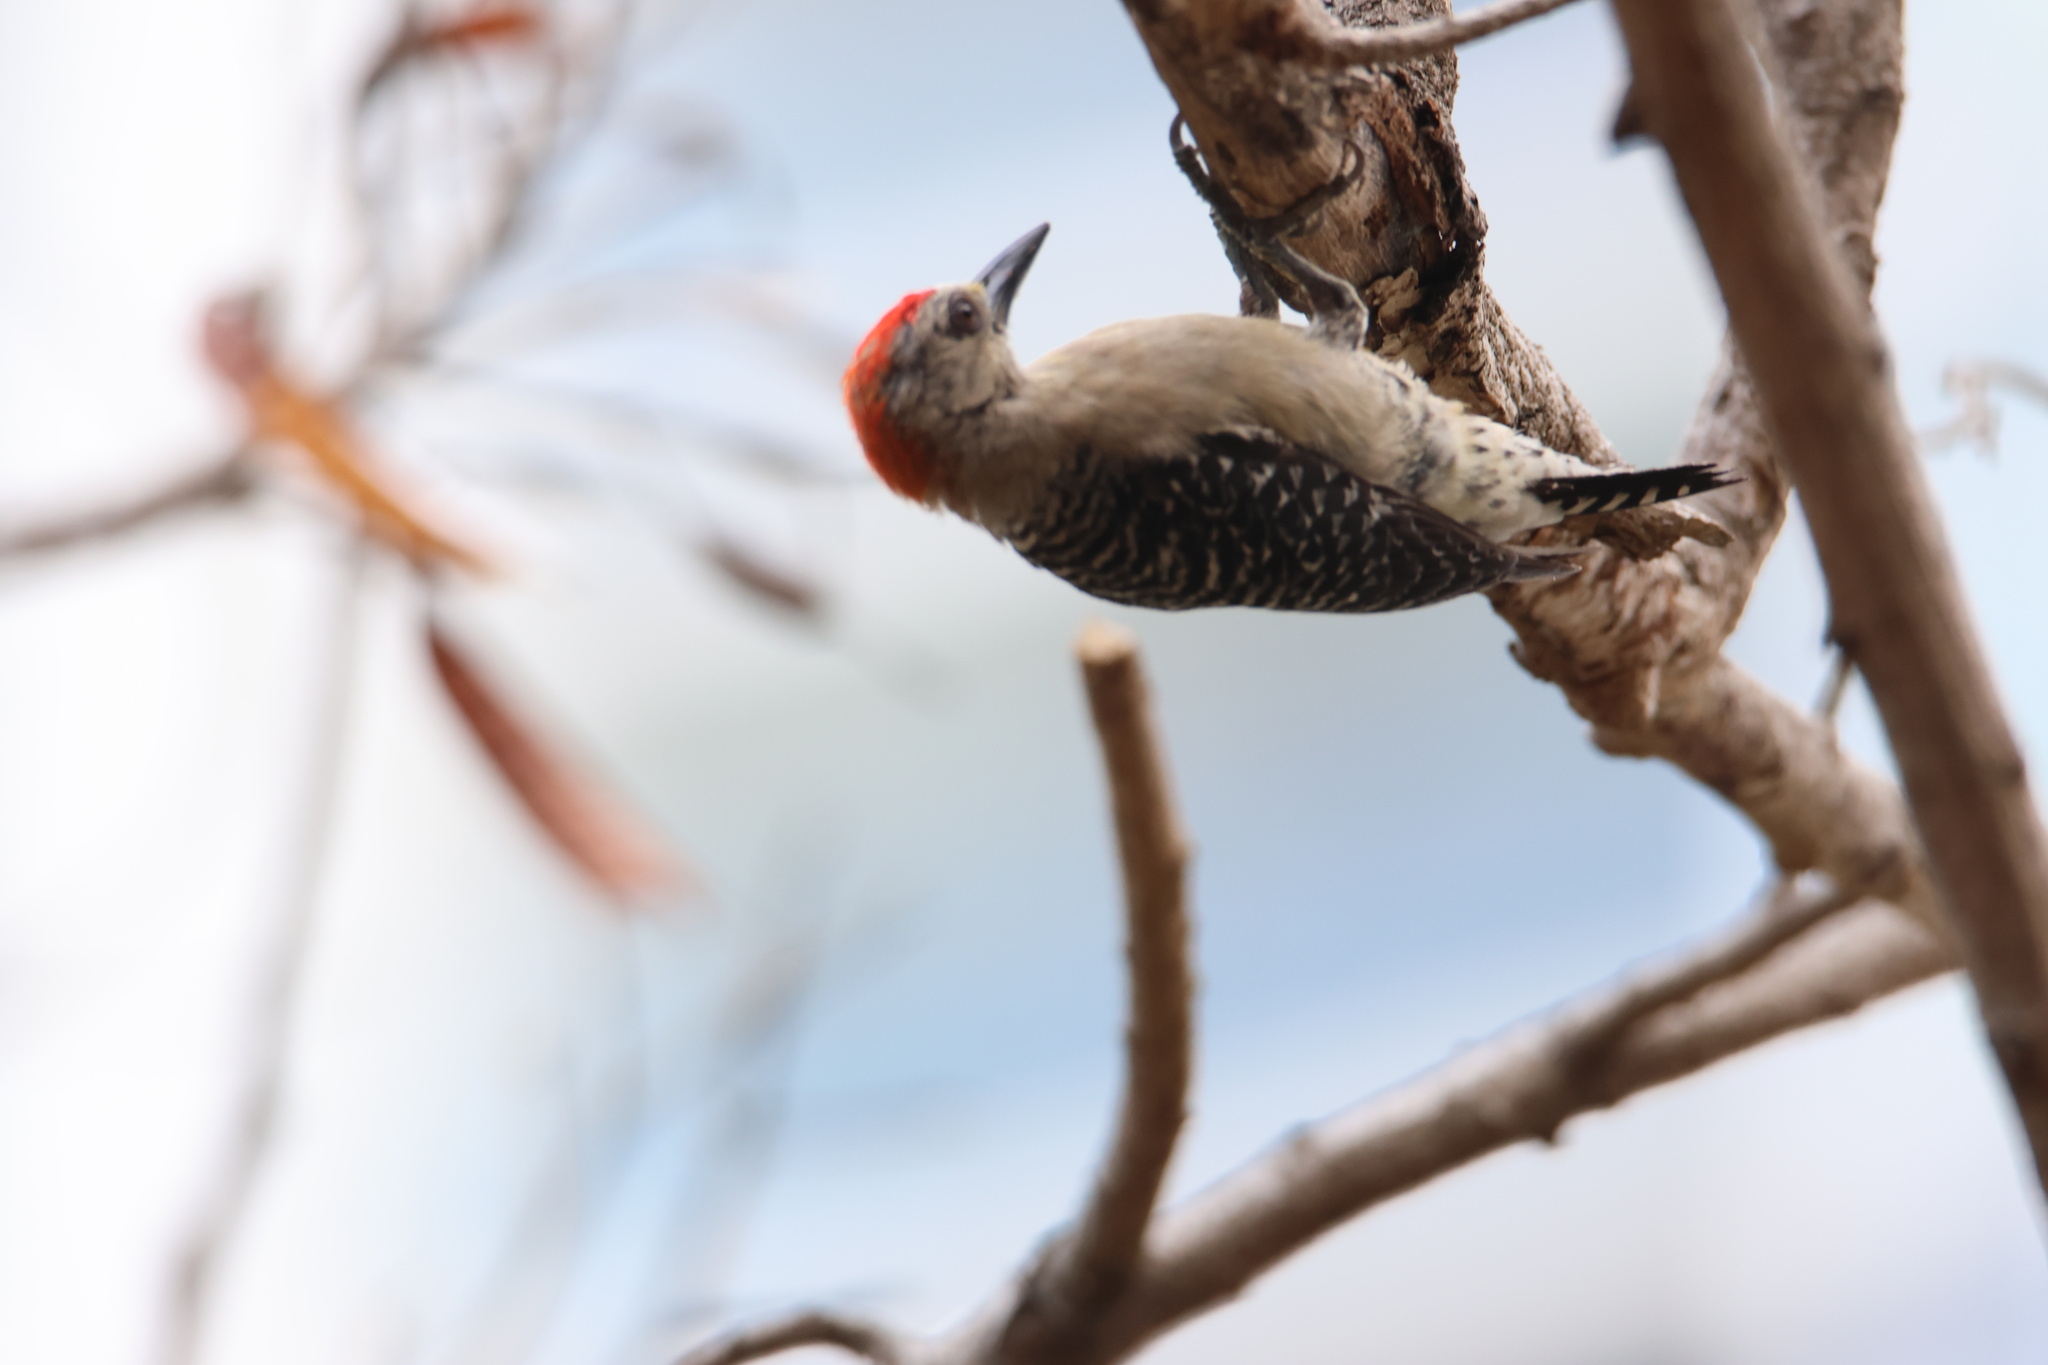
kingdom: Animalia
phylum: Chordata
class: Aves
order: Piciformes
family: Picidae
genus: Melanerpes
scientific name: Melanerpes rubricapillus
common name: Red-crowned woodpecker
